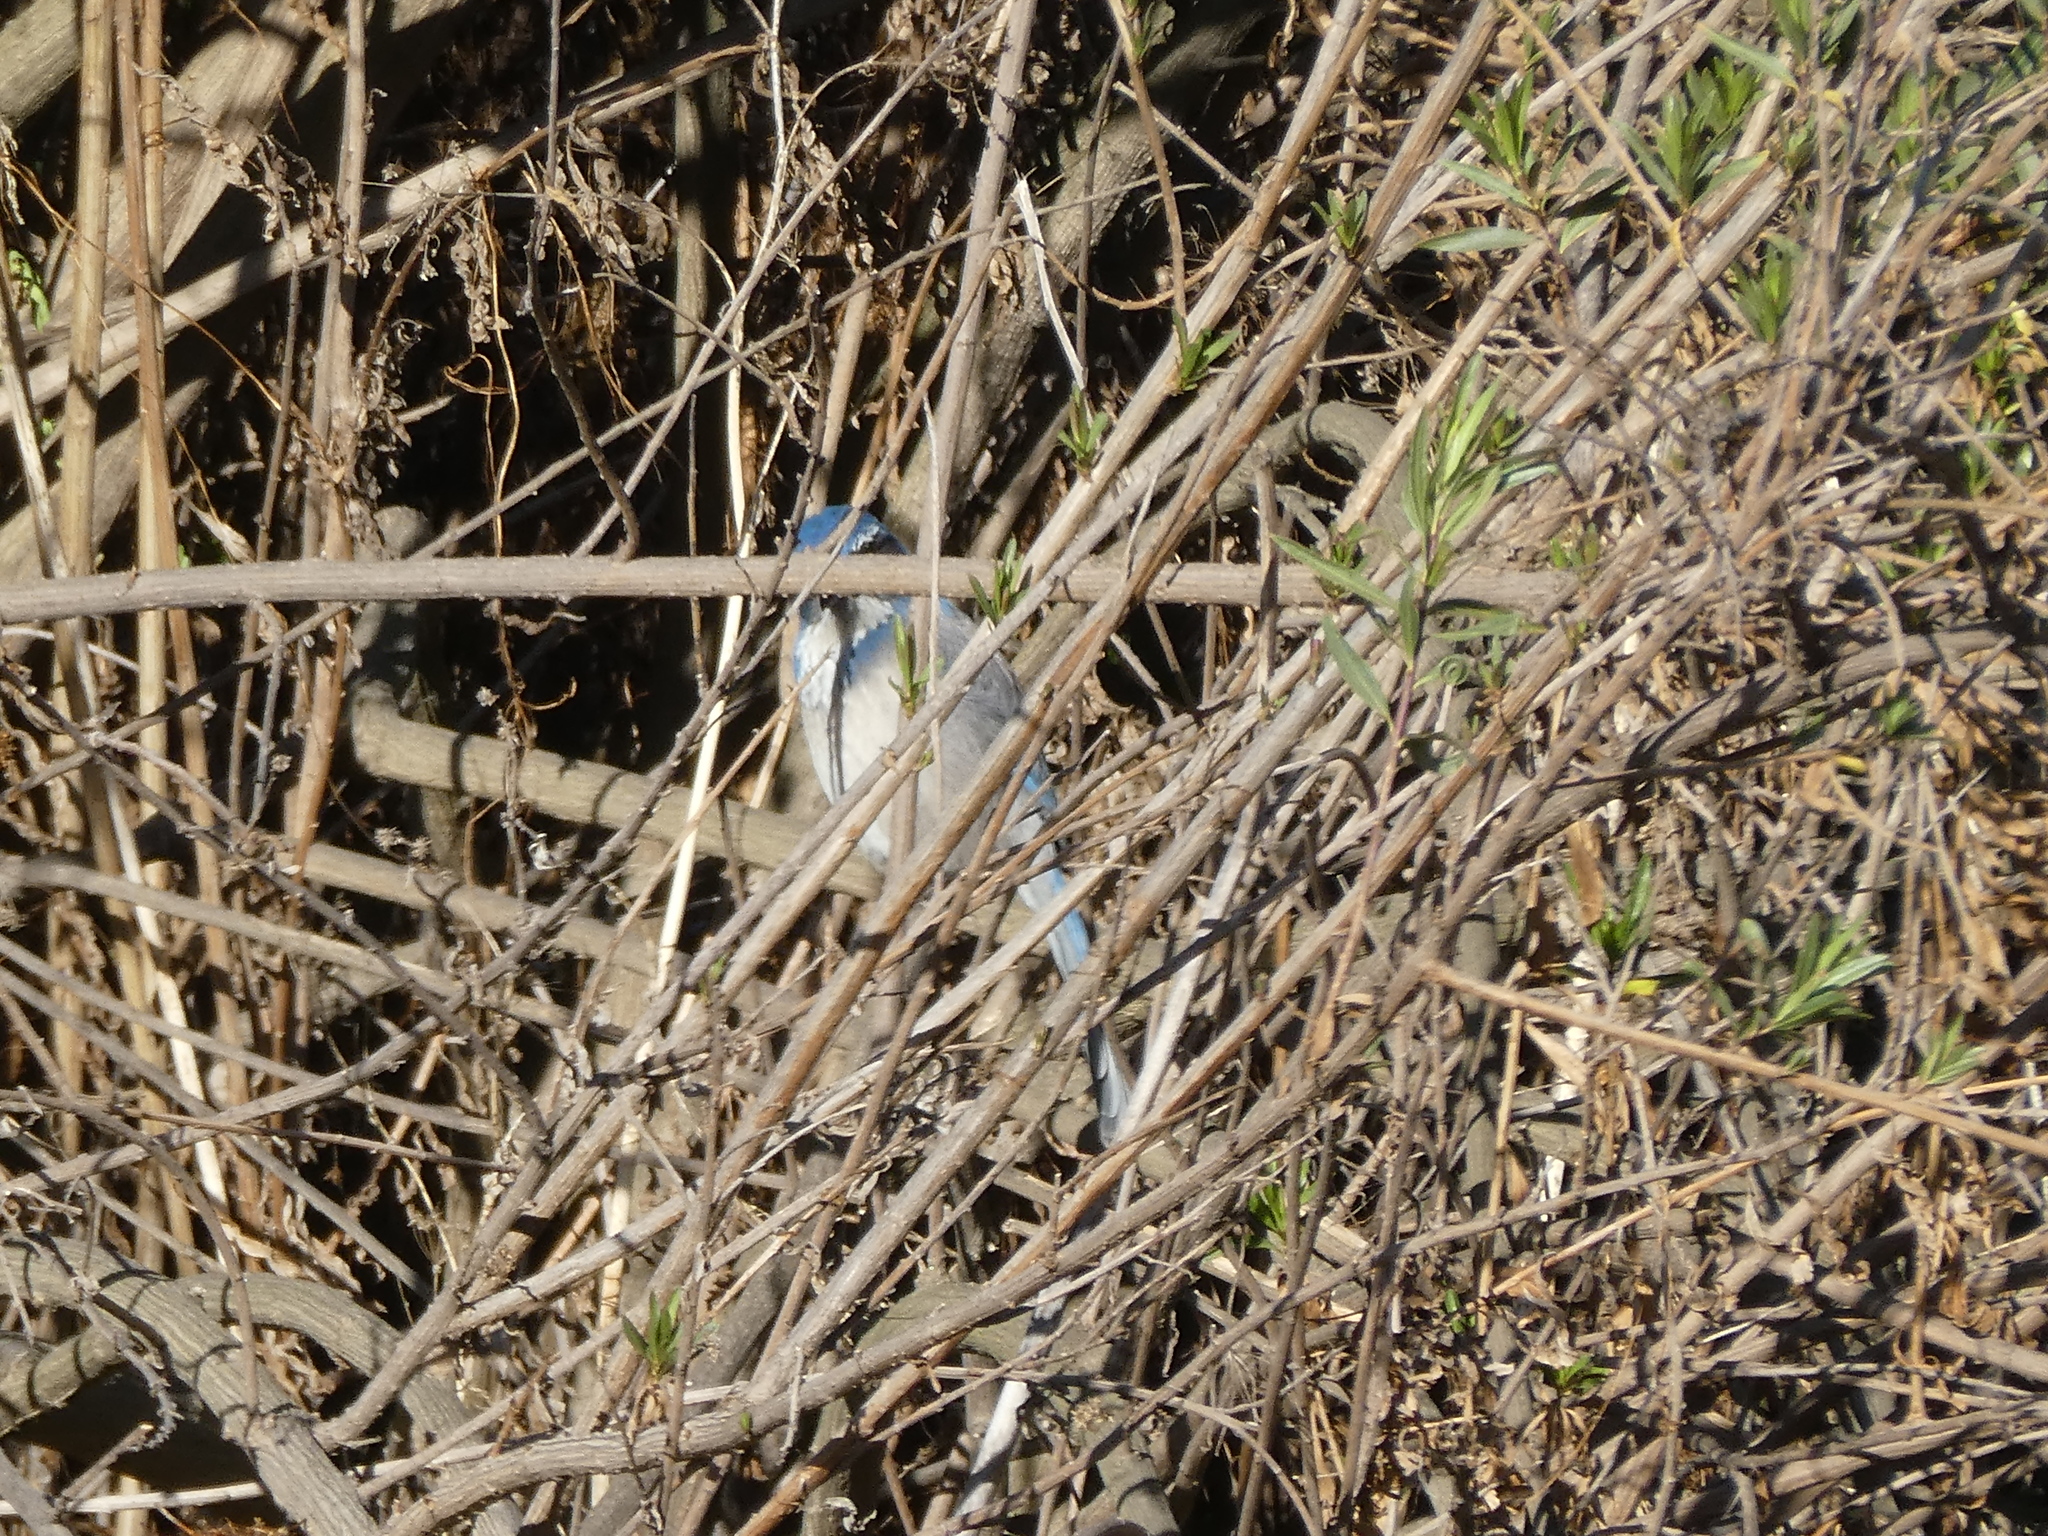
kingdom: Animalia
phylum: Chordata
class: Aves
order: Passeriformes
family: Corvidae
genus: Aphelocoma
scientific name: Aphelocoma californica
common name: California scrub-jay
